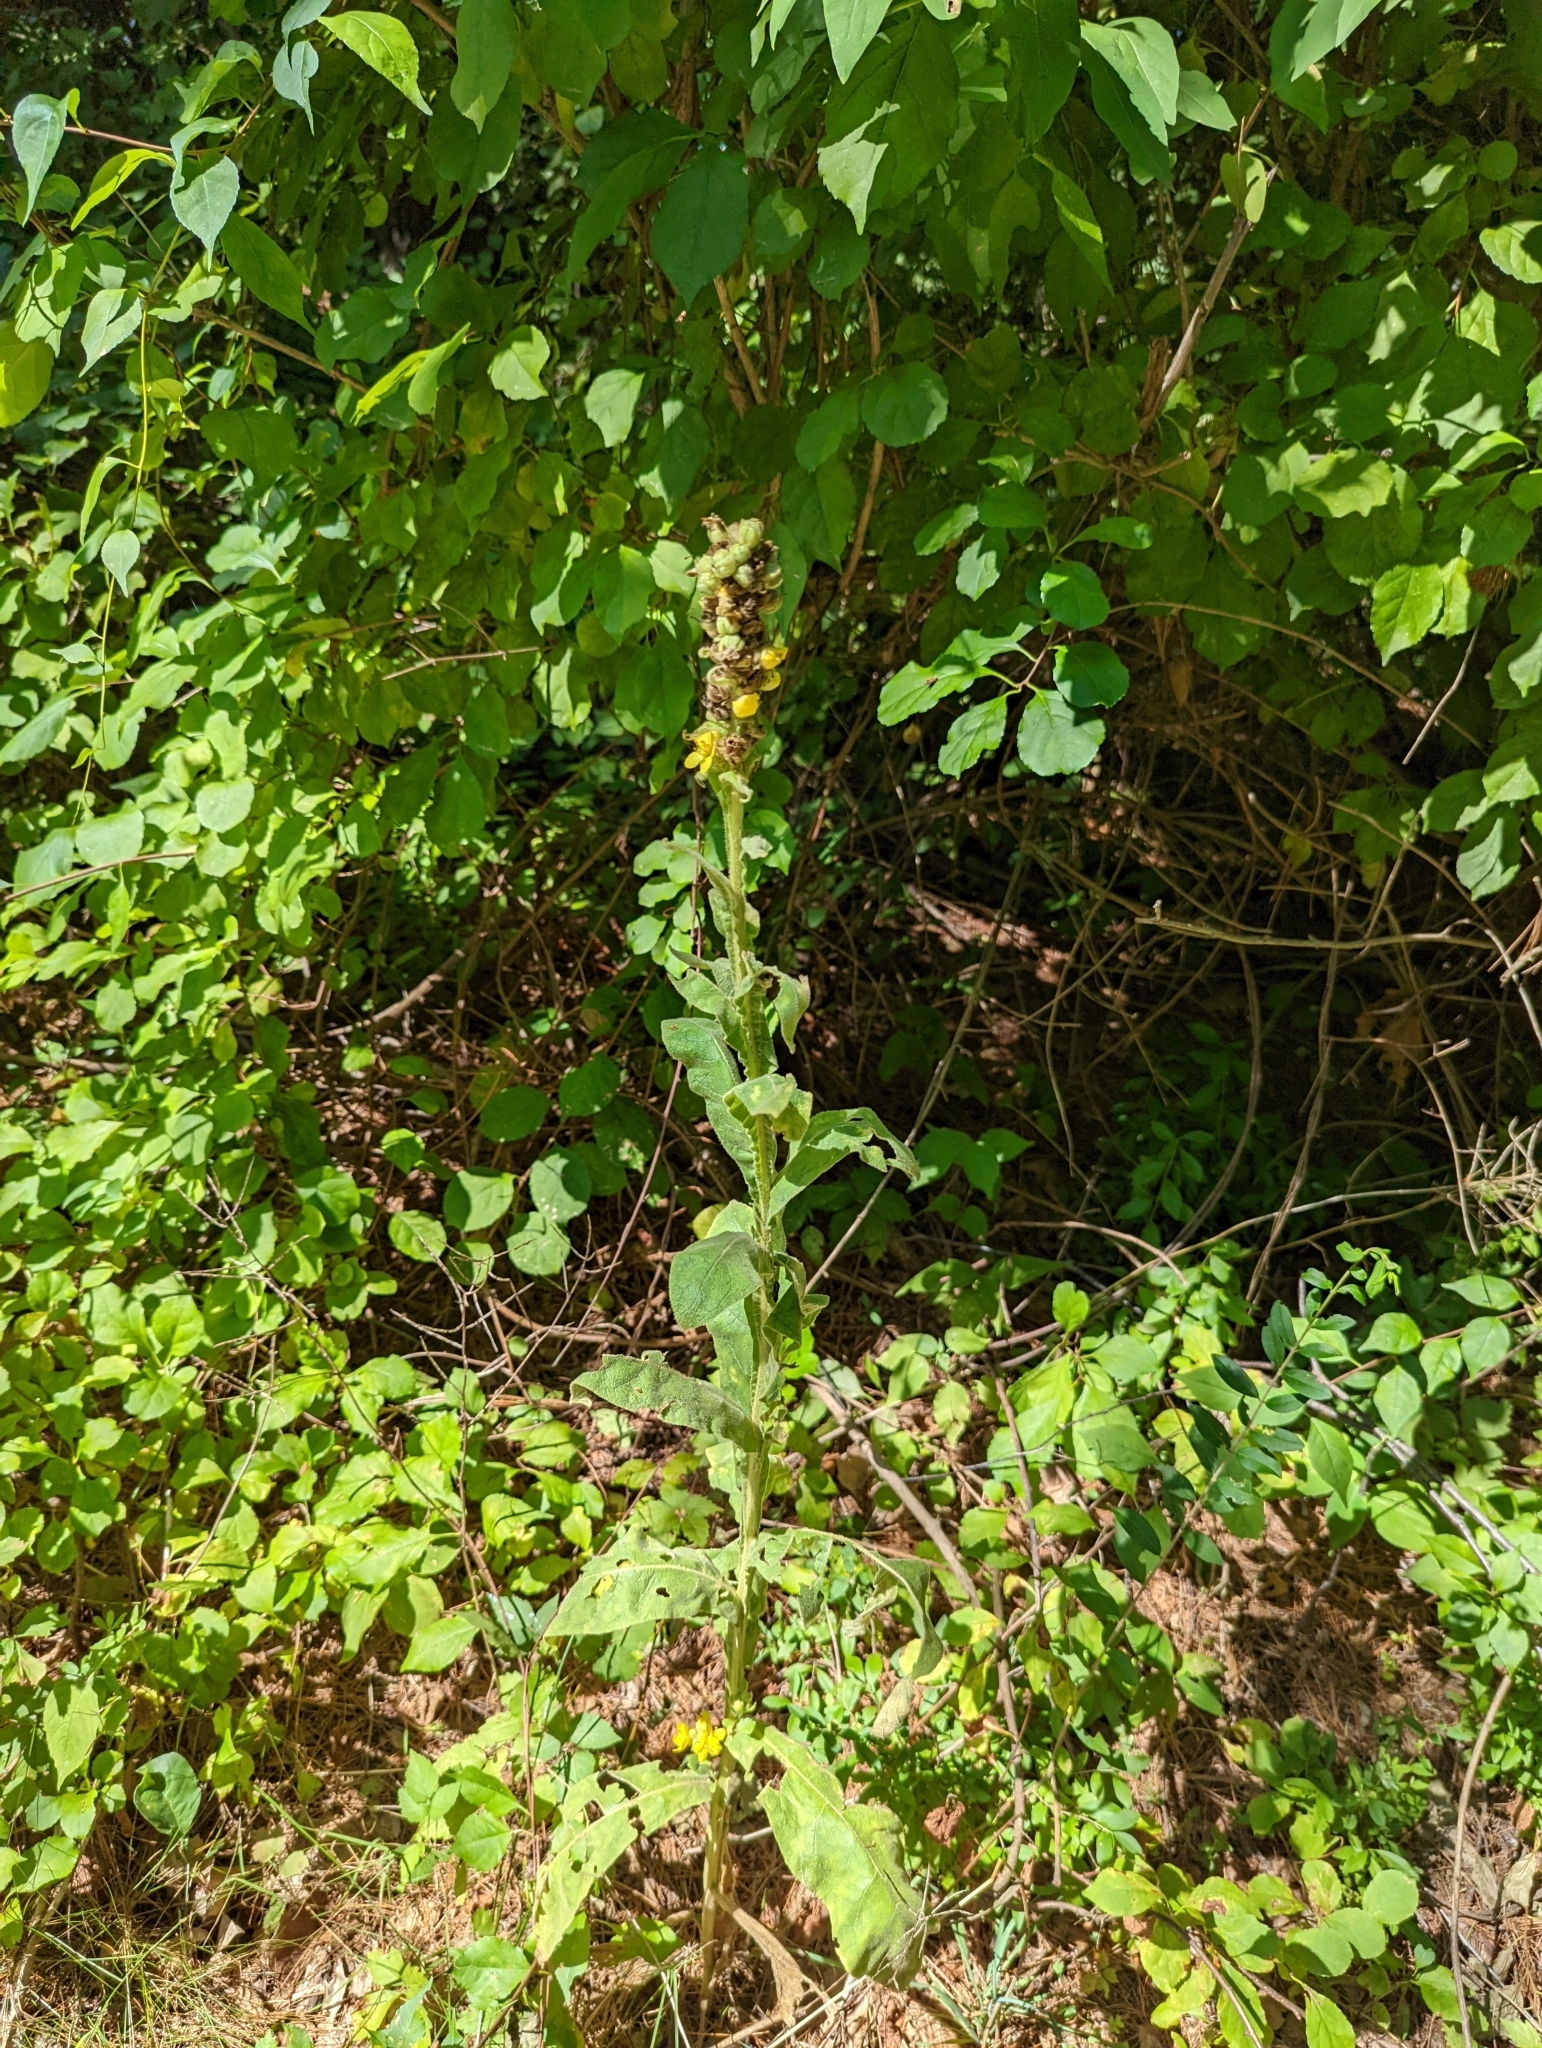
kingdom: Plantae
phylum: Tracheophyta
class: Magnoliopsida
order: Lamiales
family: Scrophulariaceae
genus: Verbascum
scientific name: Verbascum thapsus
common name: Common mullein
